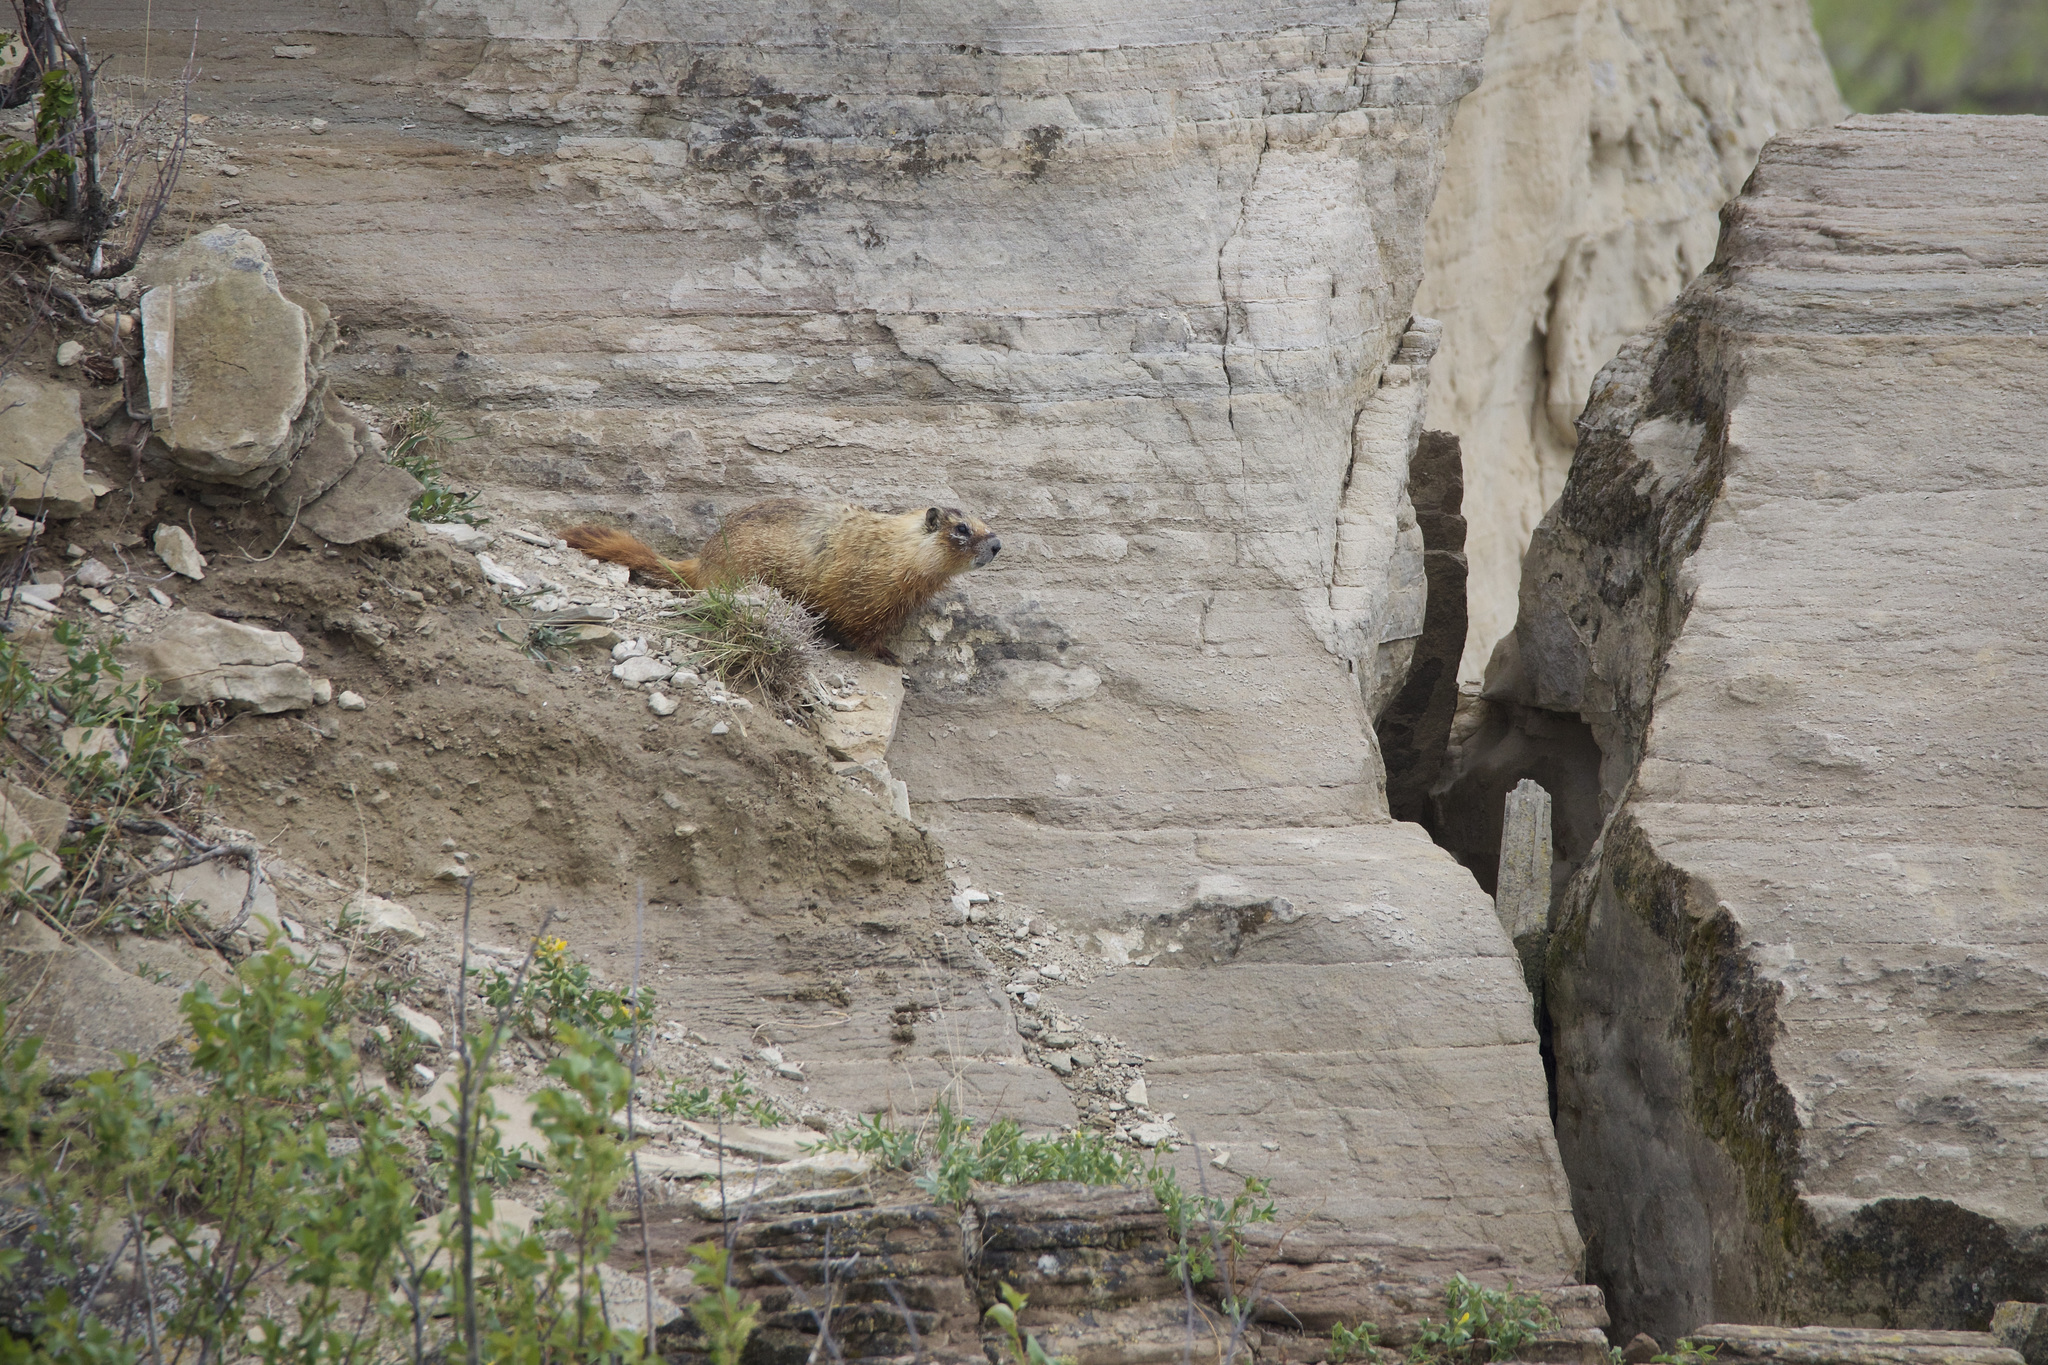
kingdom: Animalia
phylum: Chordata
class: Mammalia
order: Rodentia
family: Sciuridae
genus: Marmota
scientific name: Marmota flaviventris
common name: Yellow-bellied marmot
